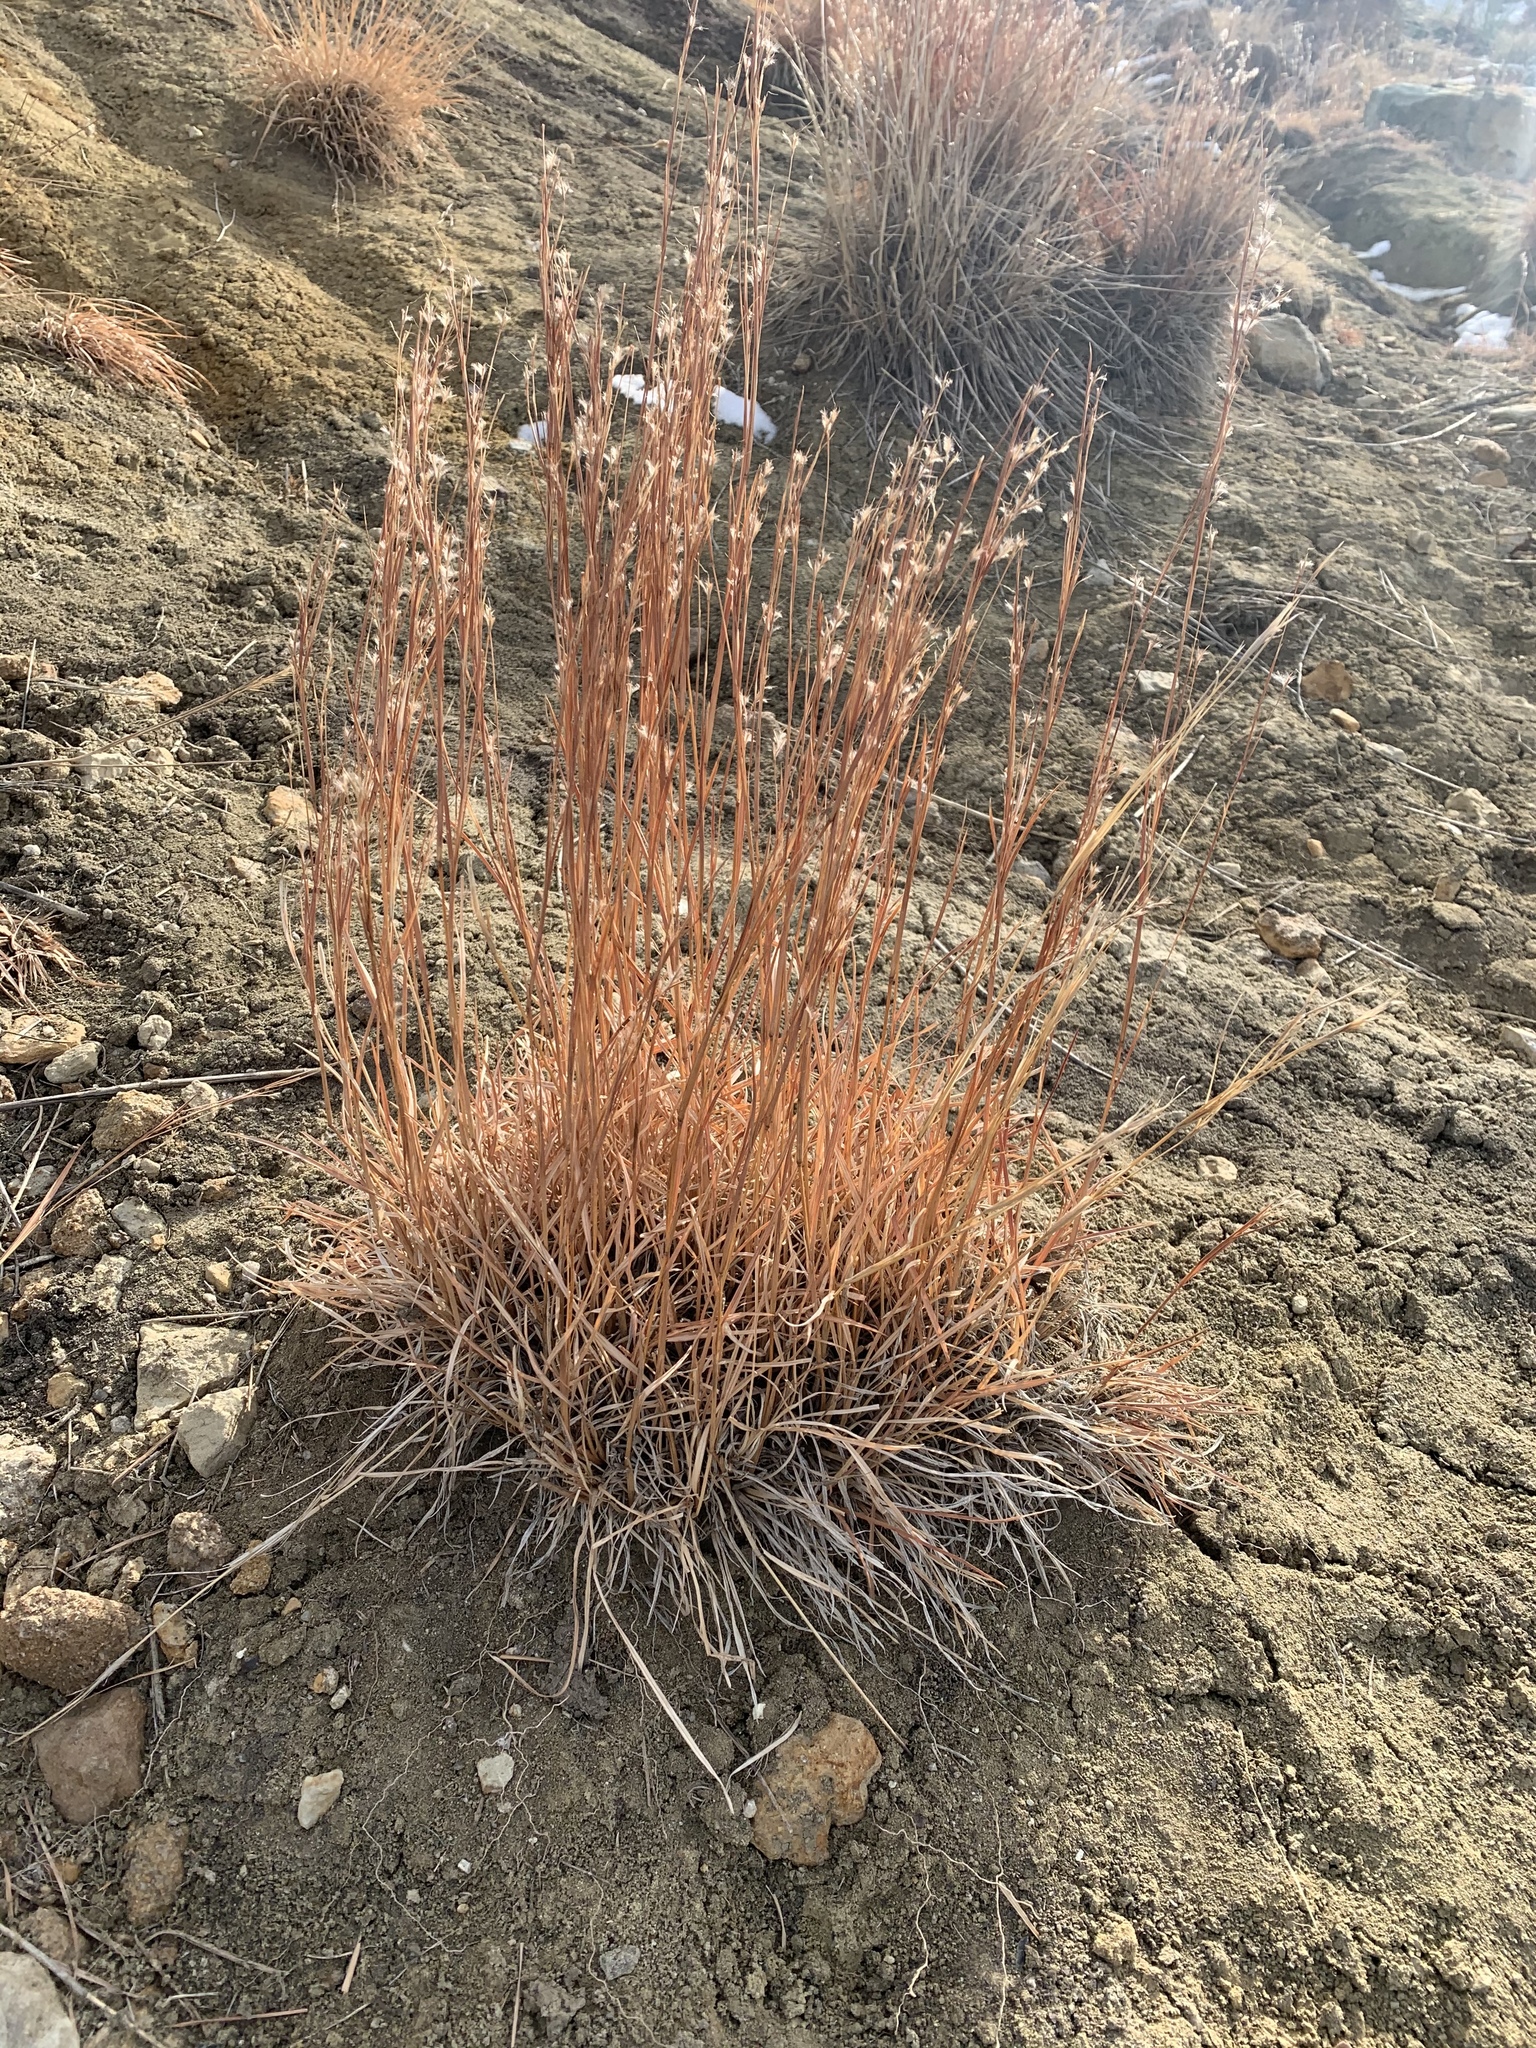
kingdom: Plantae
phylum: Tracheophyta
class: Liliopsida
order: Poales
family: Poaceae
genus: Schizachyrium
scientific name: Schizachyrium scoparium
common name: Little bluestem
